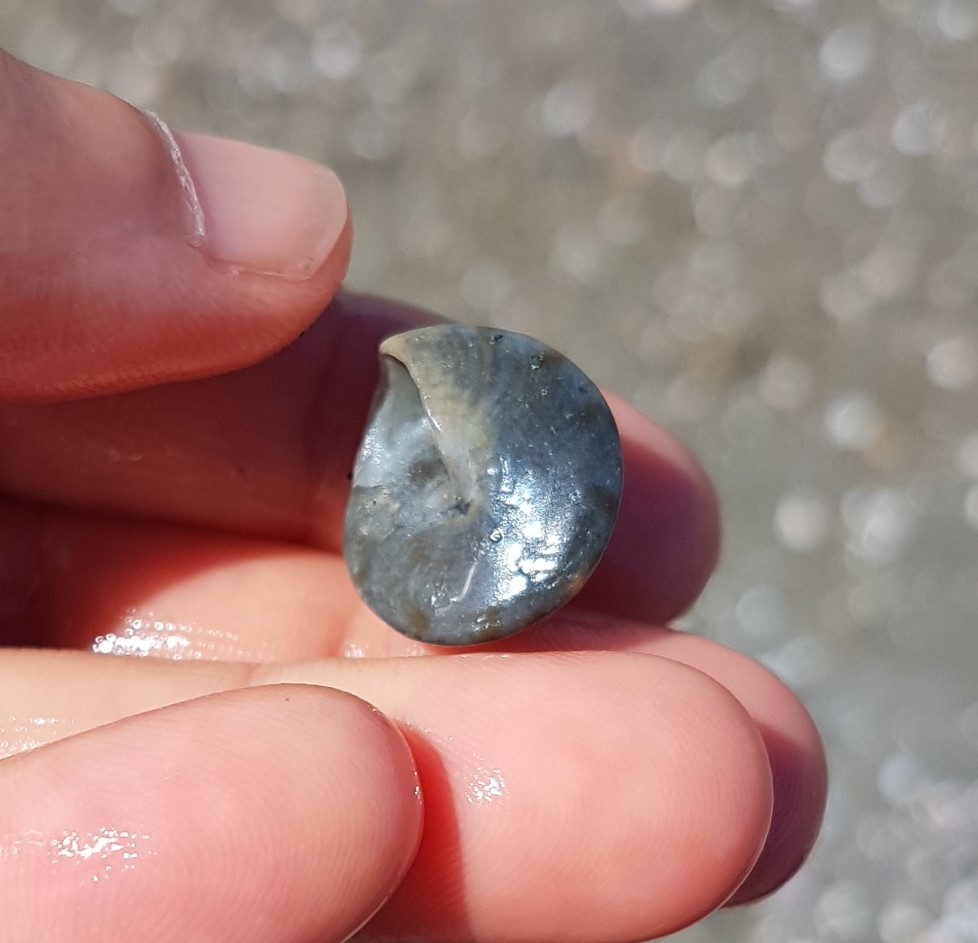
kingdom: Animalia
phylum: Mollusca
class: Gastropoda
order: Trochida
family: Calliostomatidae
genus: Calliostoma
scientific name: Calliostoma zizyphinum
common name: Painted top shell
